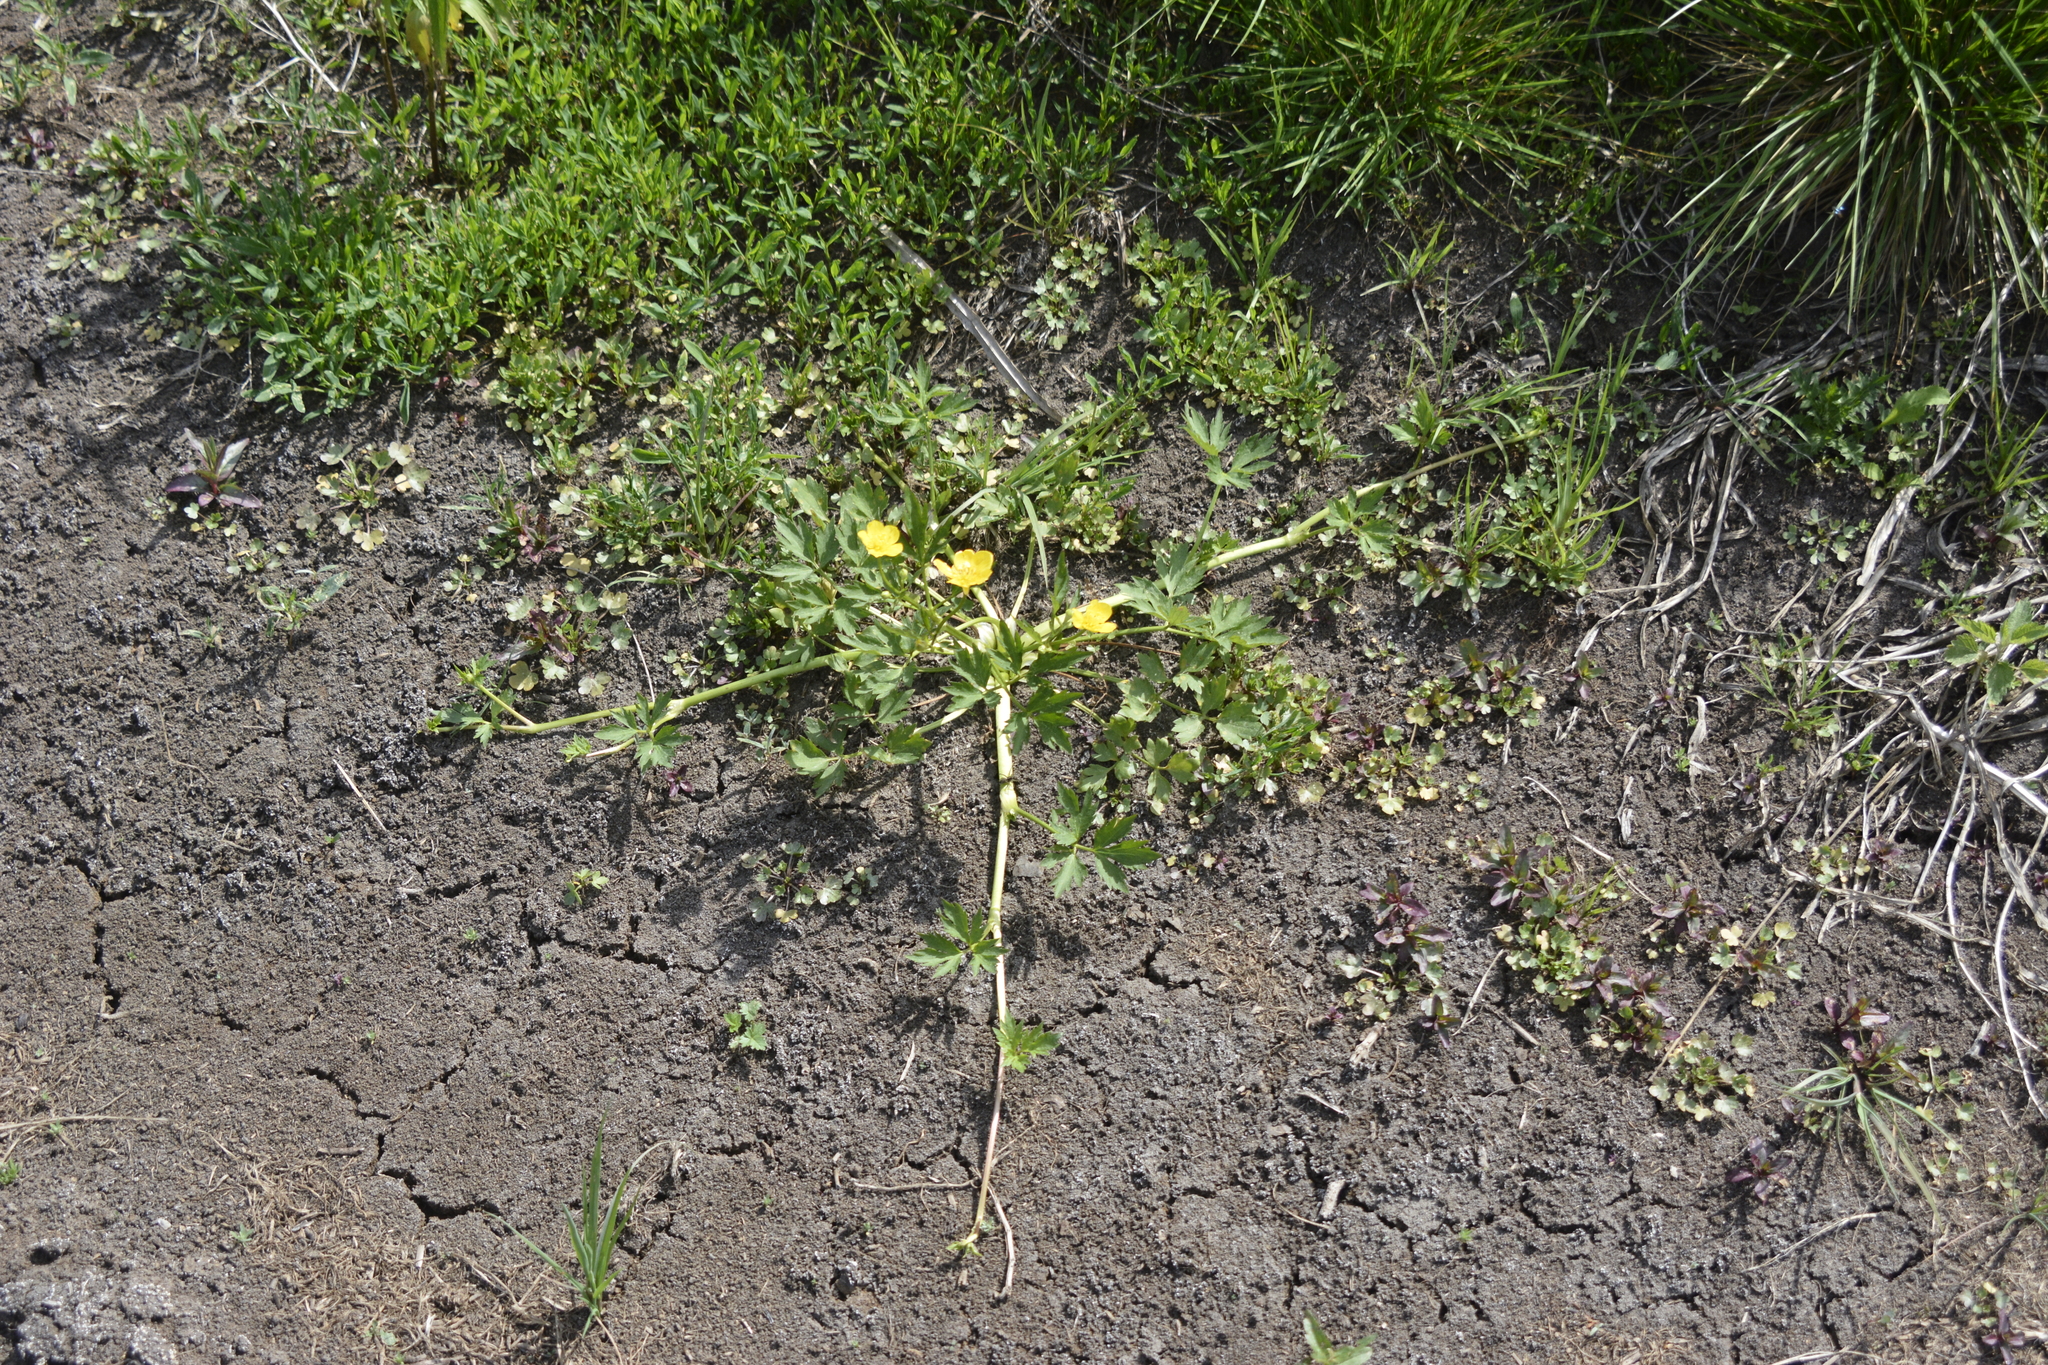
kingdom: Plantae
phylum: Tracheophyta
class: Magnoliopsida
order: Ranunculales
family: Ranunculaceae
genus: Ranunculus
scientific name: Ranunculus repens
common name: Creeping buttercup
